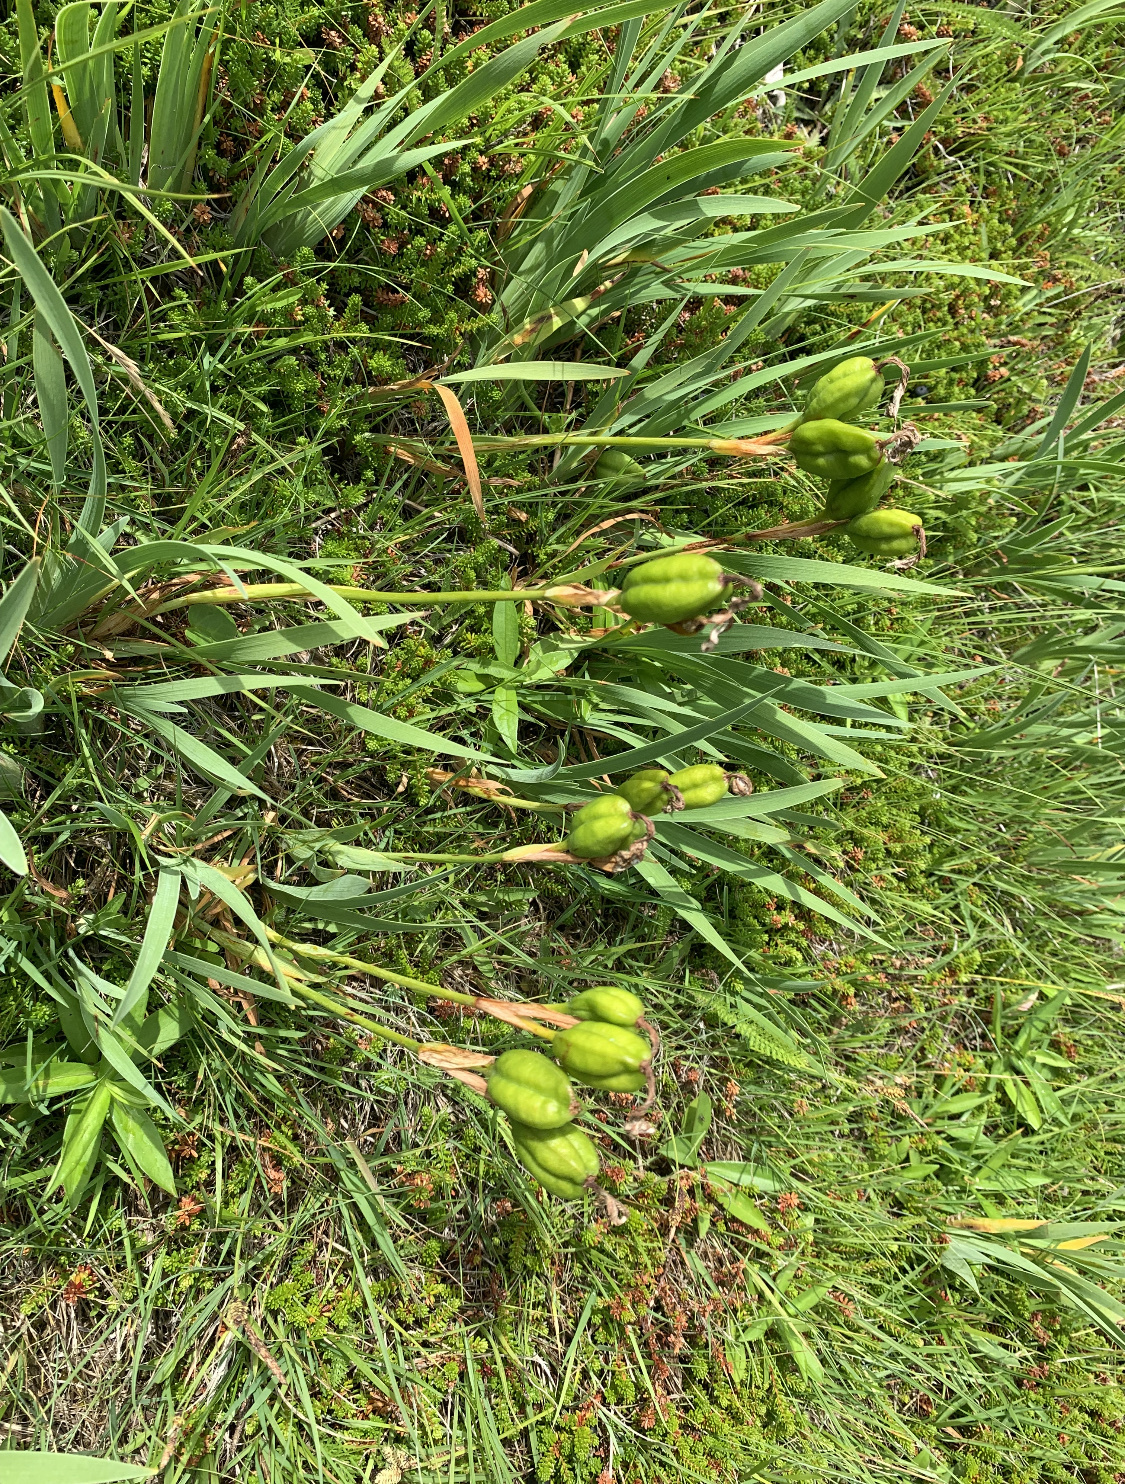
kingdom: Plantae
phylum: Tracheophyta
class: Liliopsida
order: Asparagales
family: Iridaceae
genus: Iris
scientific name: Iris hookeri
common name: Canada beach-head iris
